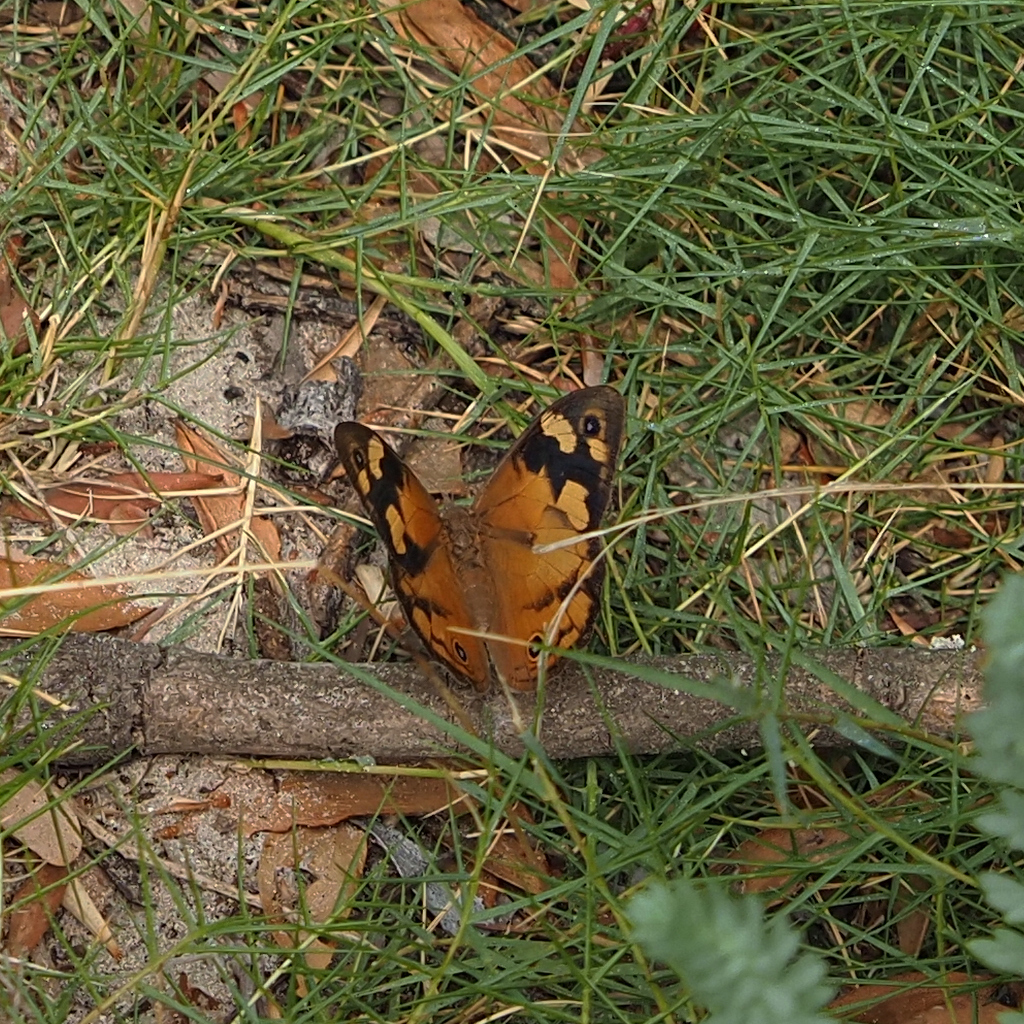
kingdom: Animalia
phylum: Arthropoda
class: Insecta
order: Lepidoptera
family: Nymphalidae
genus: Heteronympha
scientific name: Heteronympha merope
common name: Common brown
